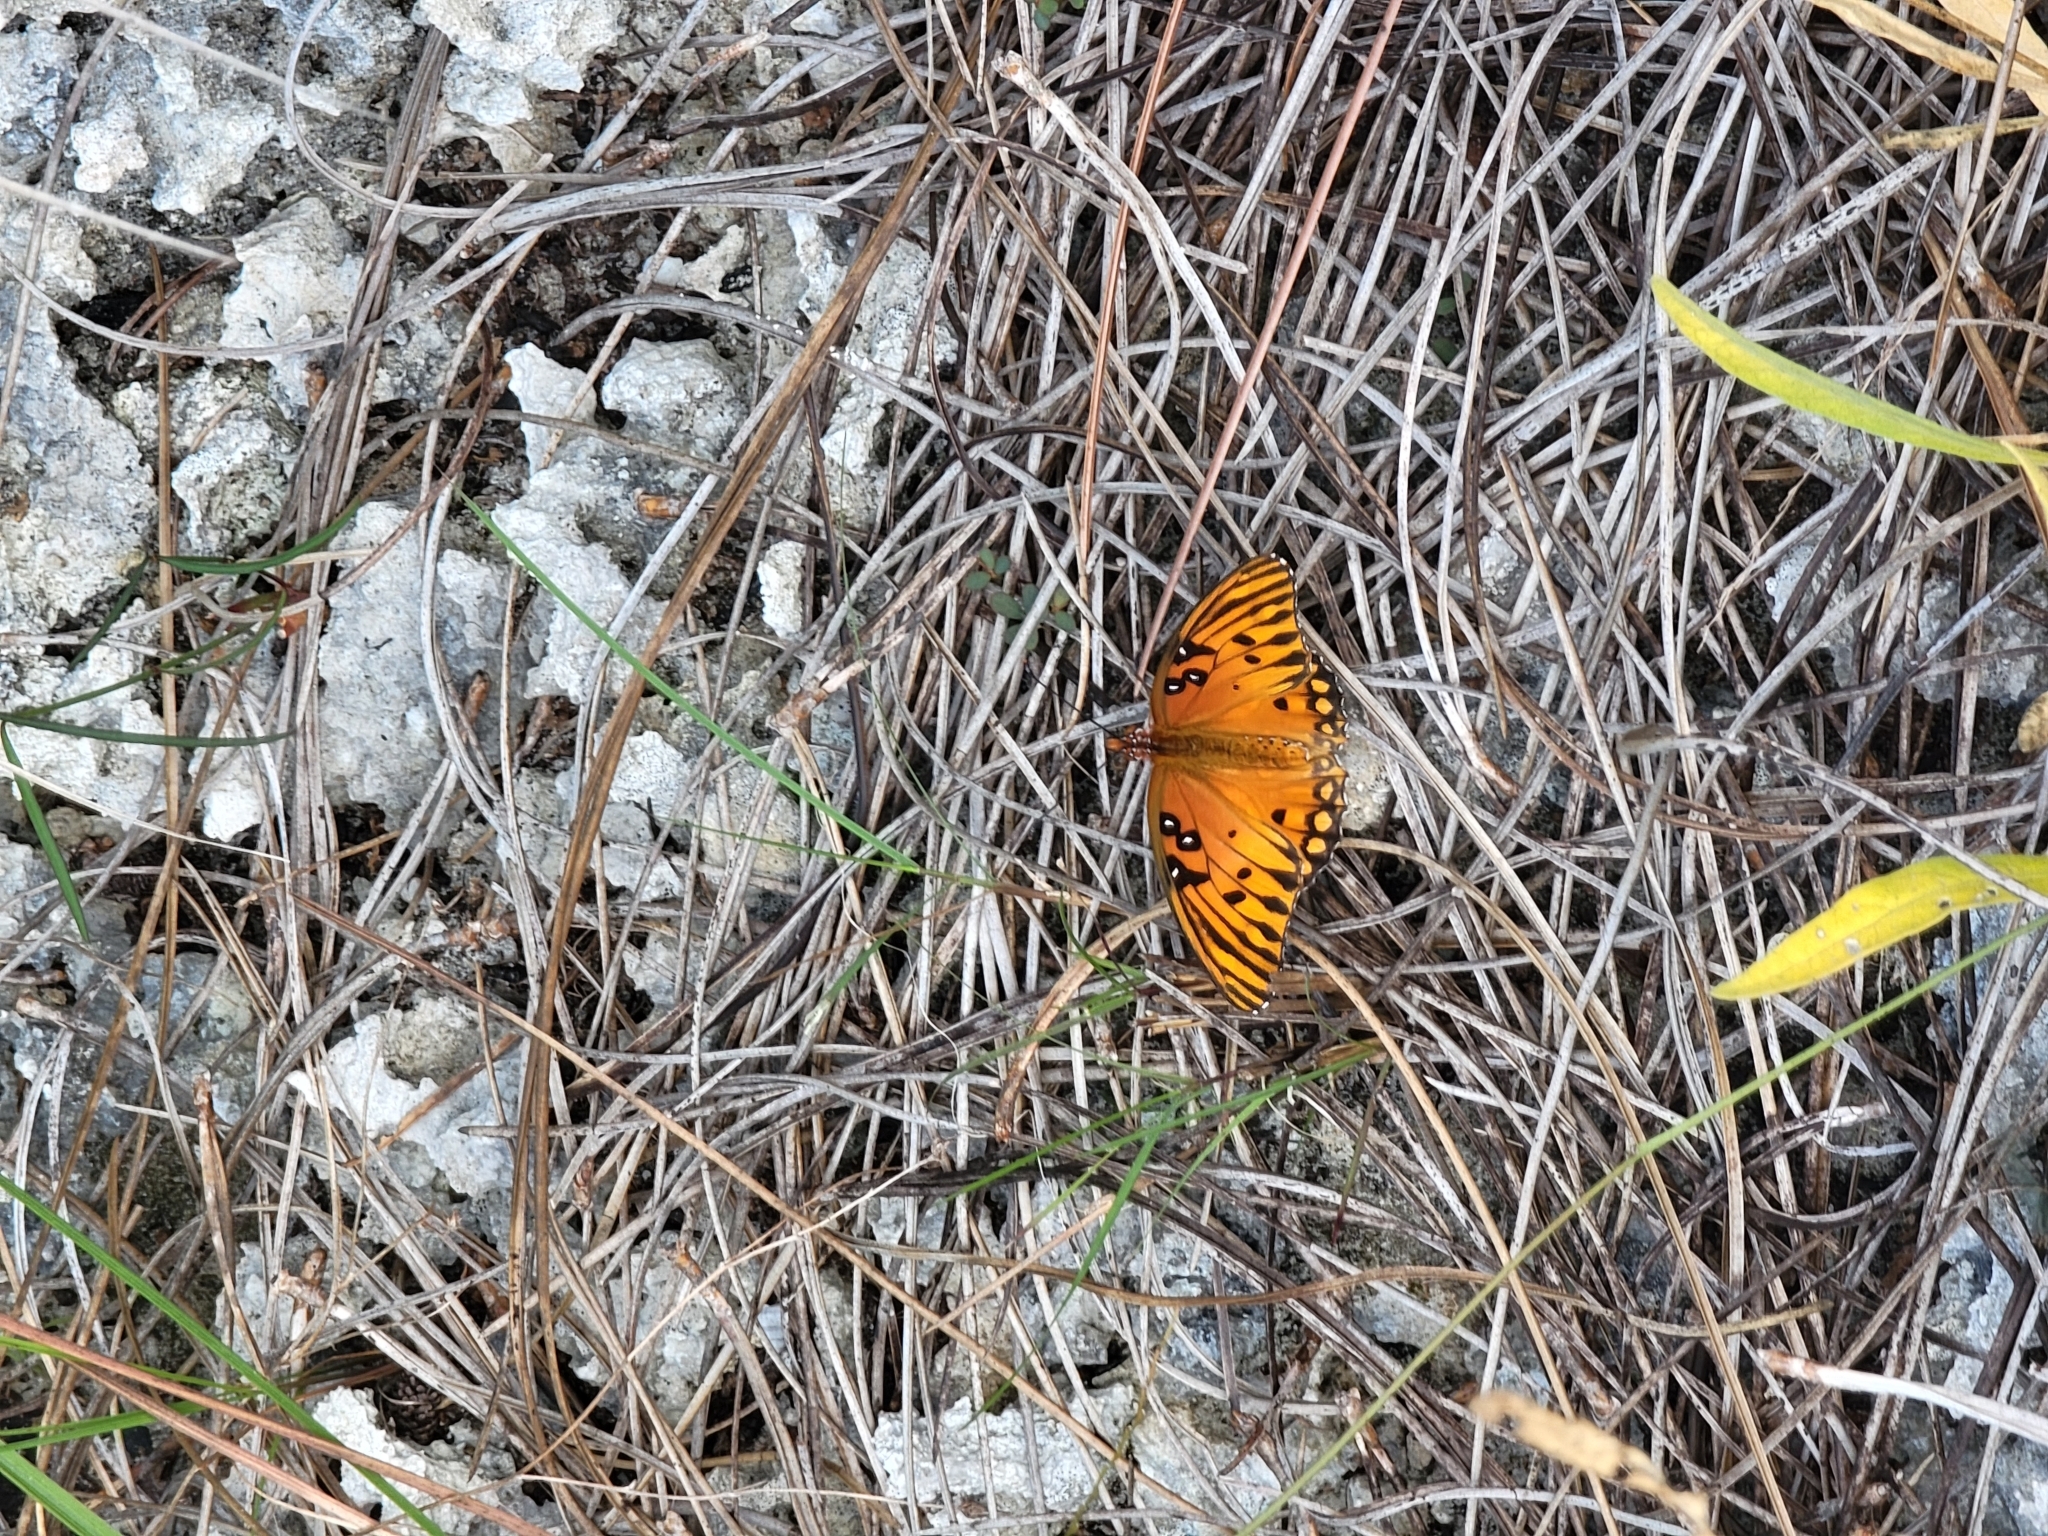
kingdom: Animalia
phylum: Arthropoda
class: Insecta
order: Lepidoptera
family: Nymphalidae
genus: Dione
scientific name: Dione vanillae
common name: Gulf fritillary
